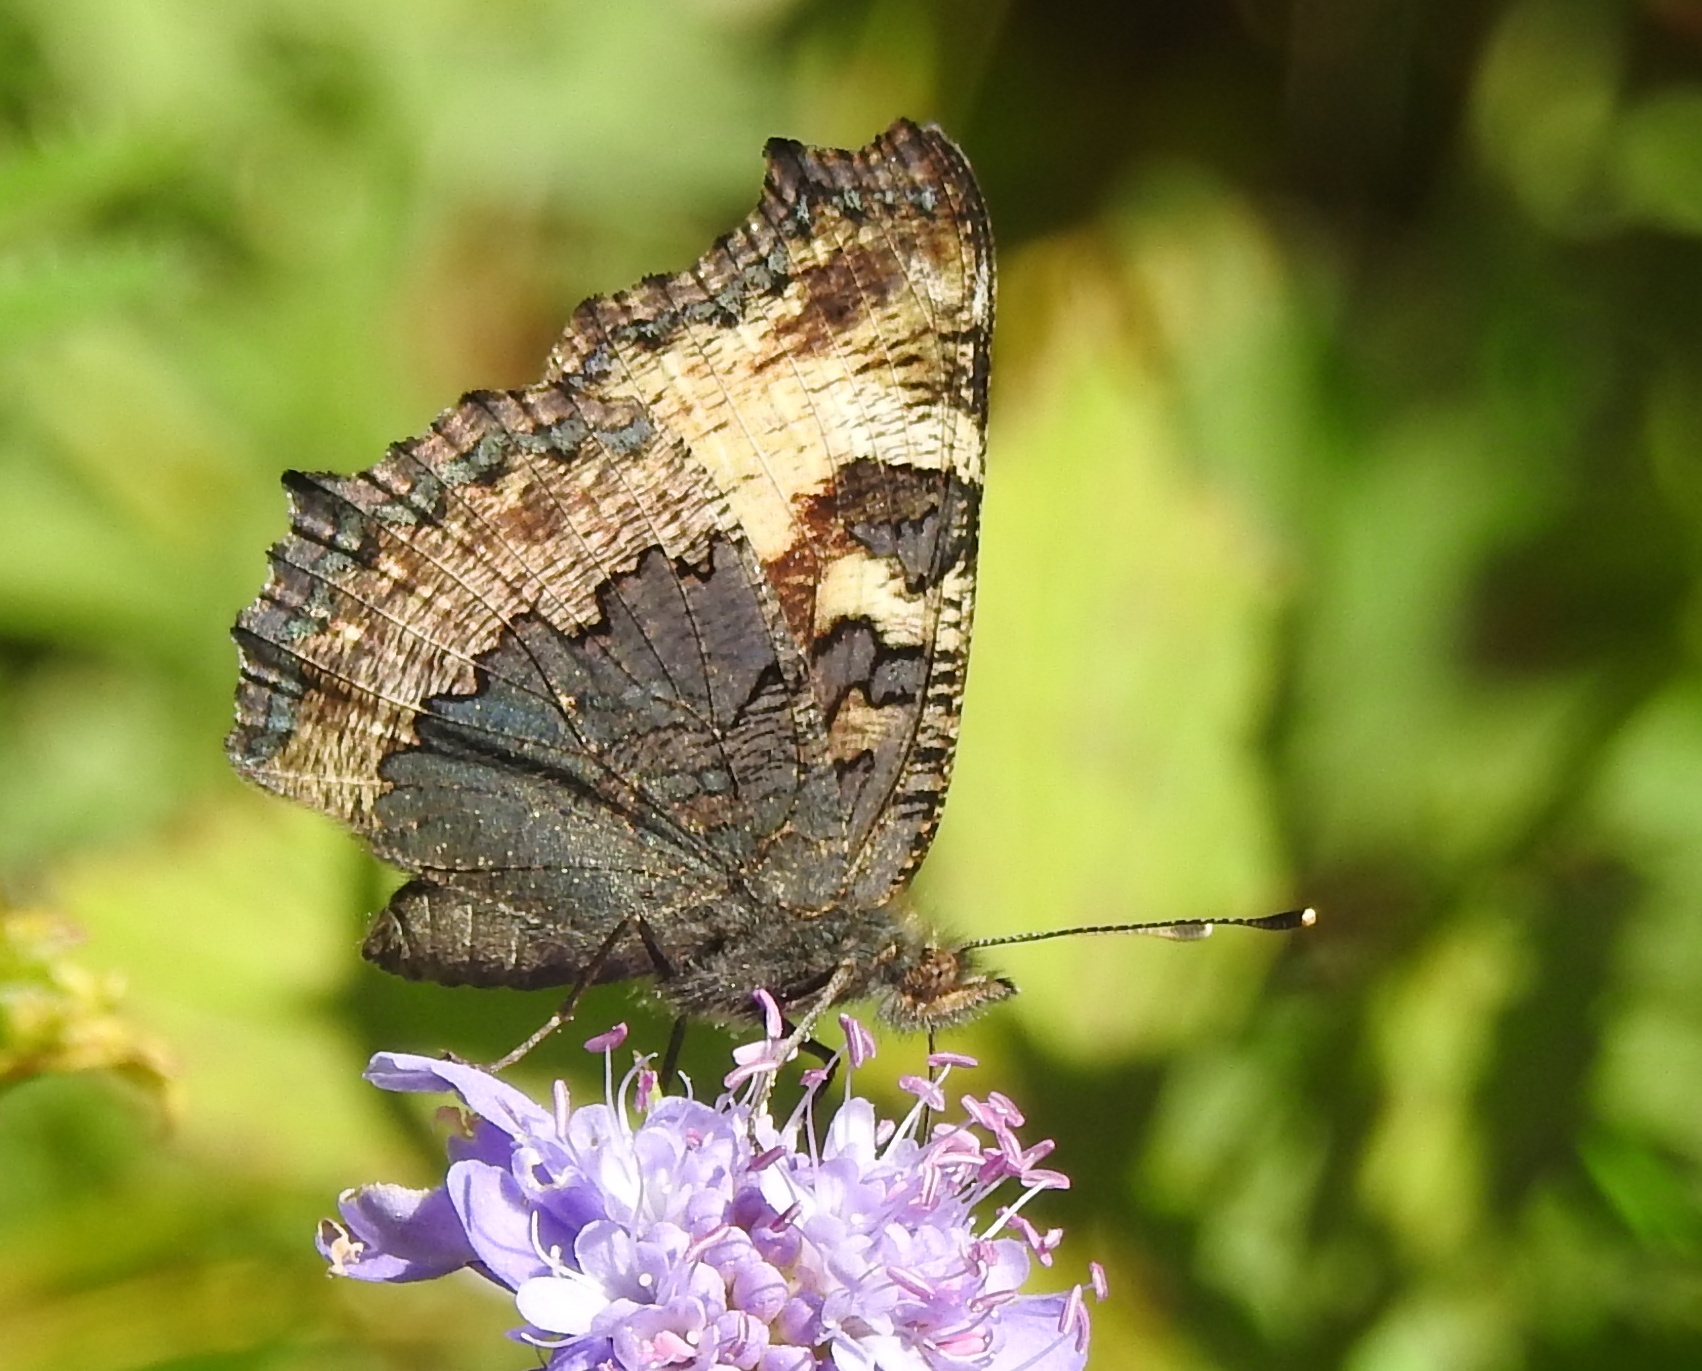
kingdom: Animalia
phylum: Arthropoda
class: Insecta
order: Lepidoptera
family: Nymphalidae
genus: Aglais
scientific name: Aglais urticae
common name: Small tortoiseshell
